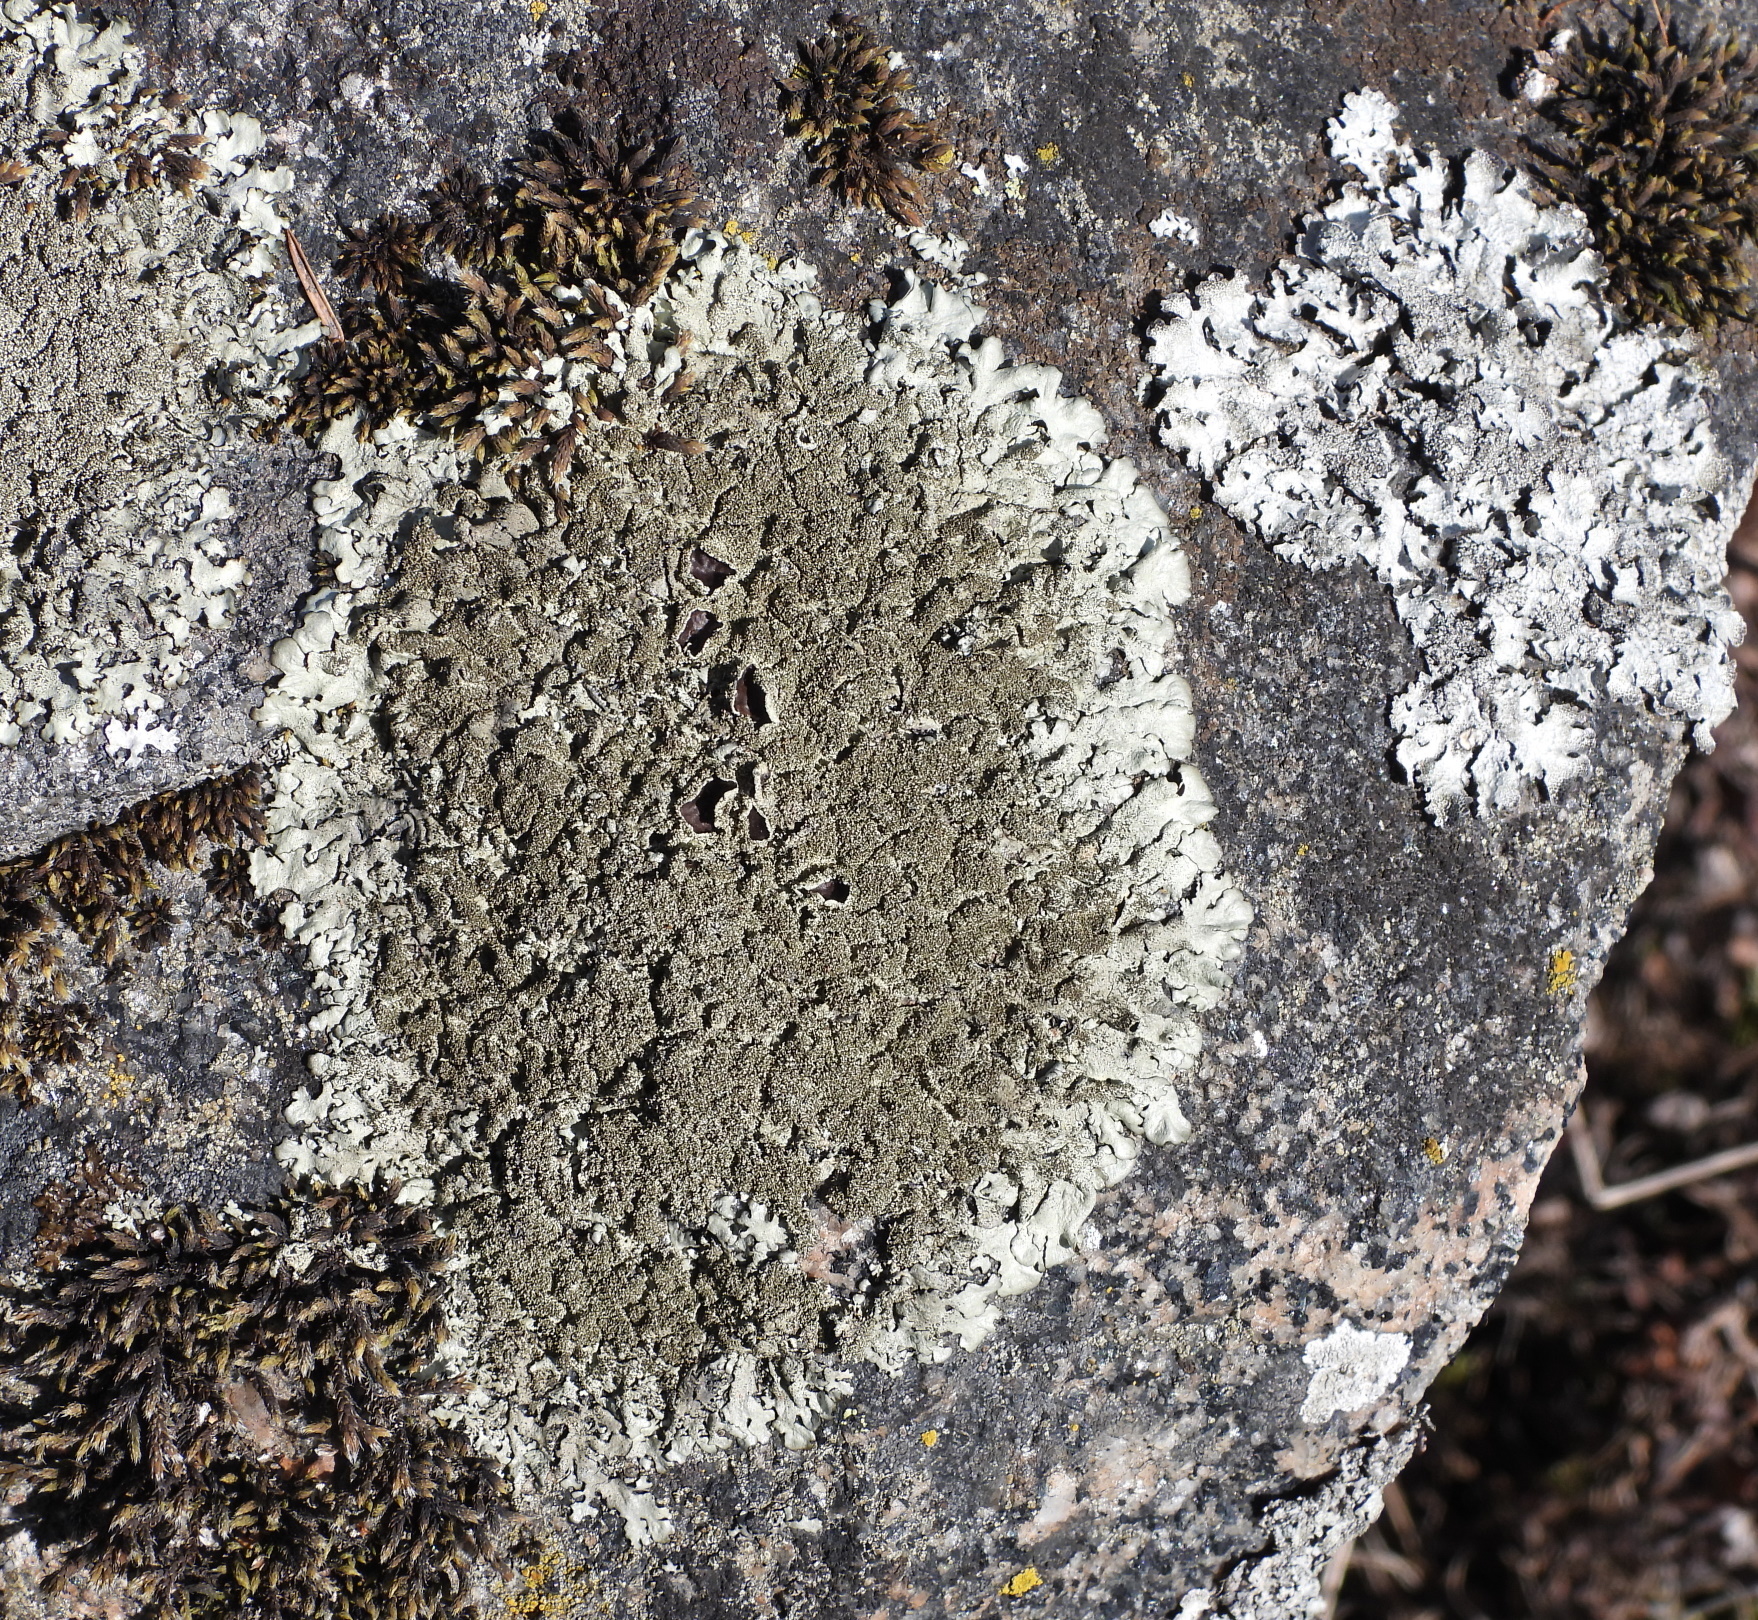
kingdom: Fungi
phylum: Ascomycota
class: Lecanoromycetes
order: Lecanorales
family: Parmeliaceae
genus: Xanthoparmelia
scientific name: Xanthoparmelia conspersa
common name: Peppered rock shield
